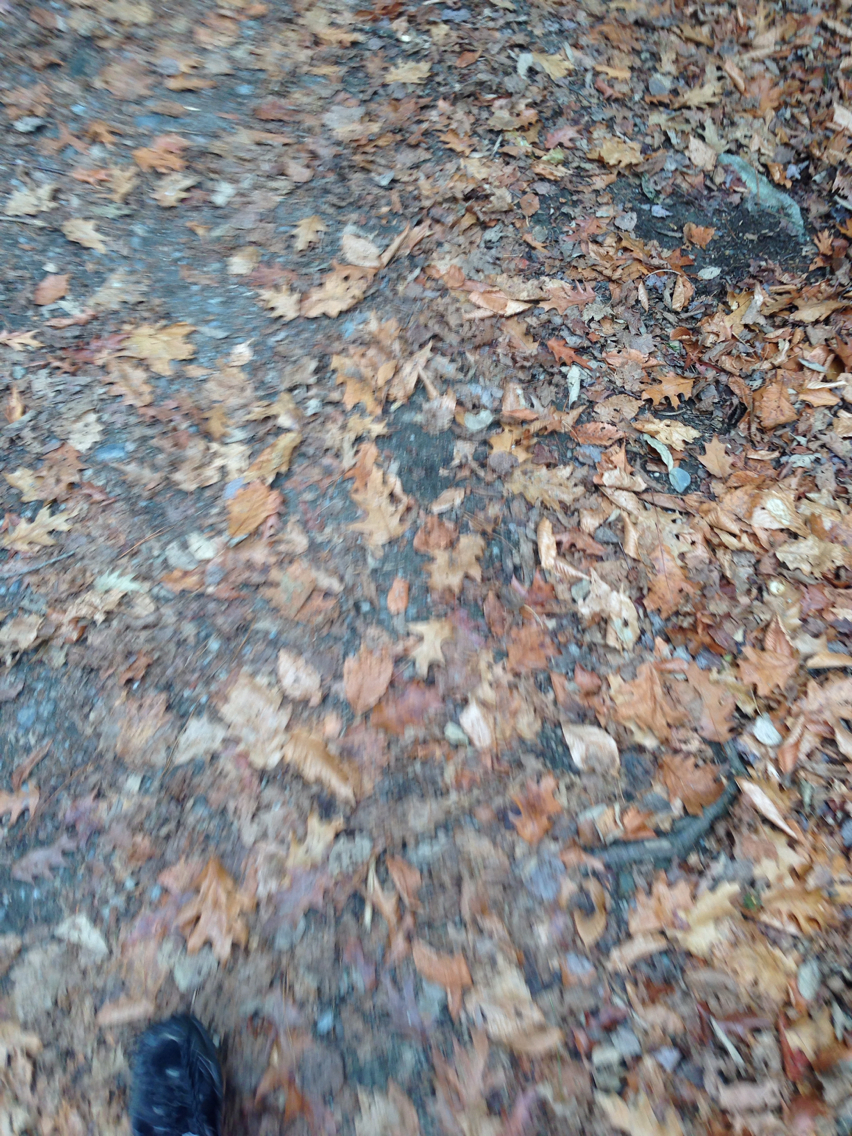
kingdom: Plantae
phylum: Tracheophyta
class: Magnoliopsida
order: Fagales
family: Fagaceae
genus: Quercus
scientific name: Quercus rubra
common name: Red oak
